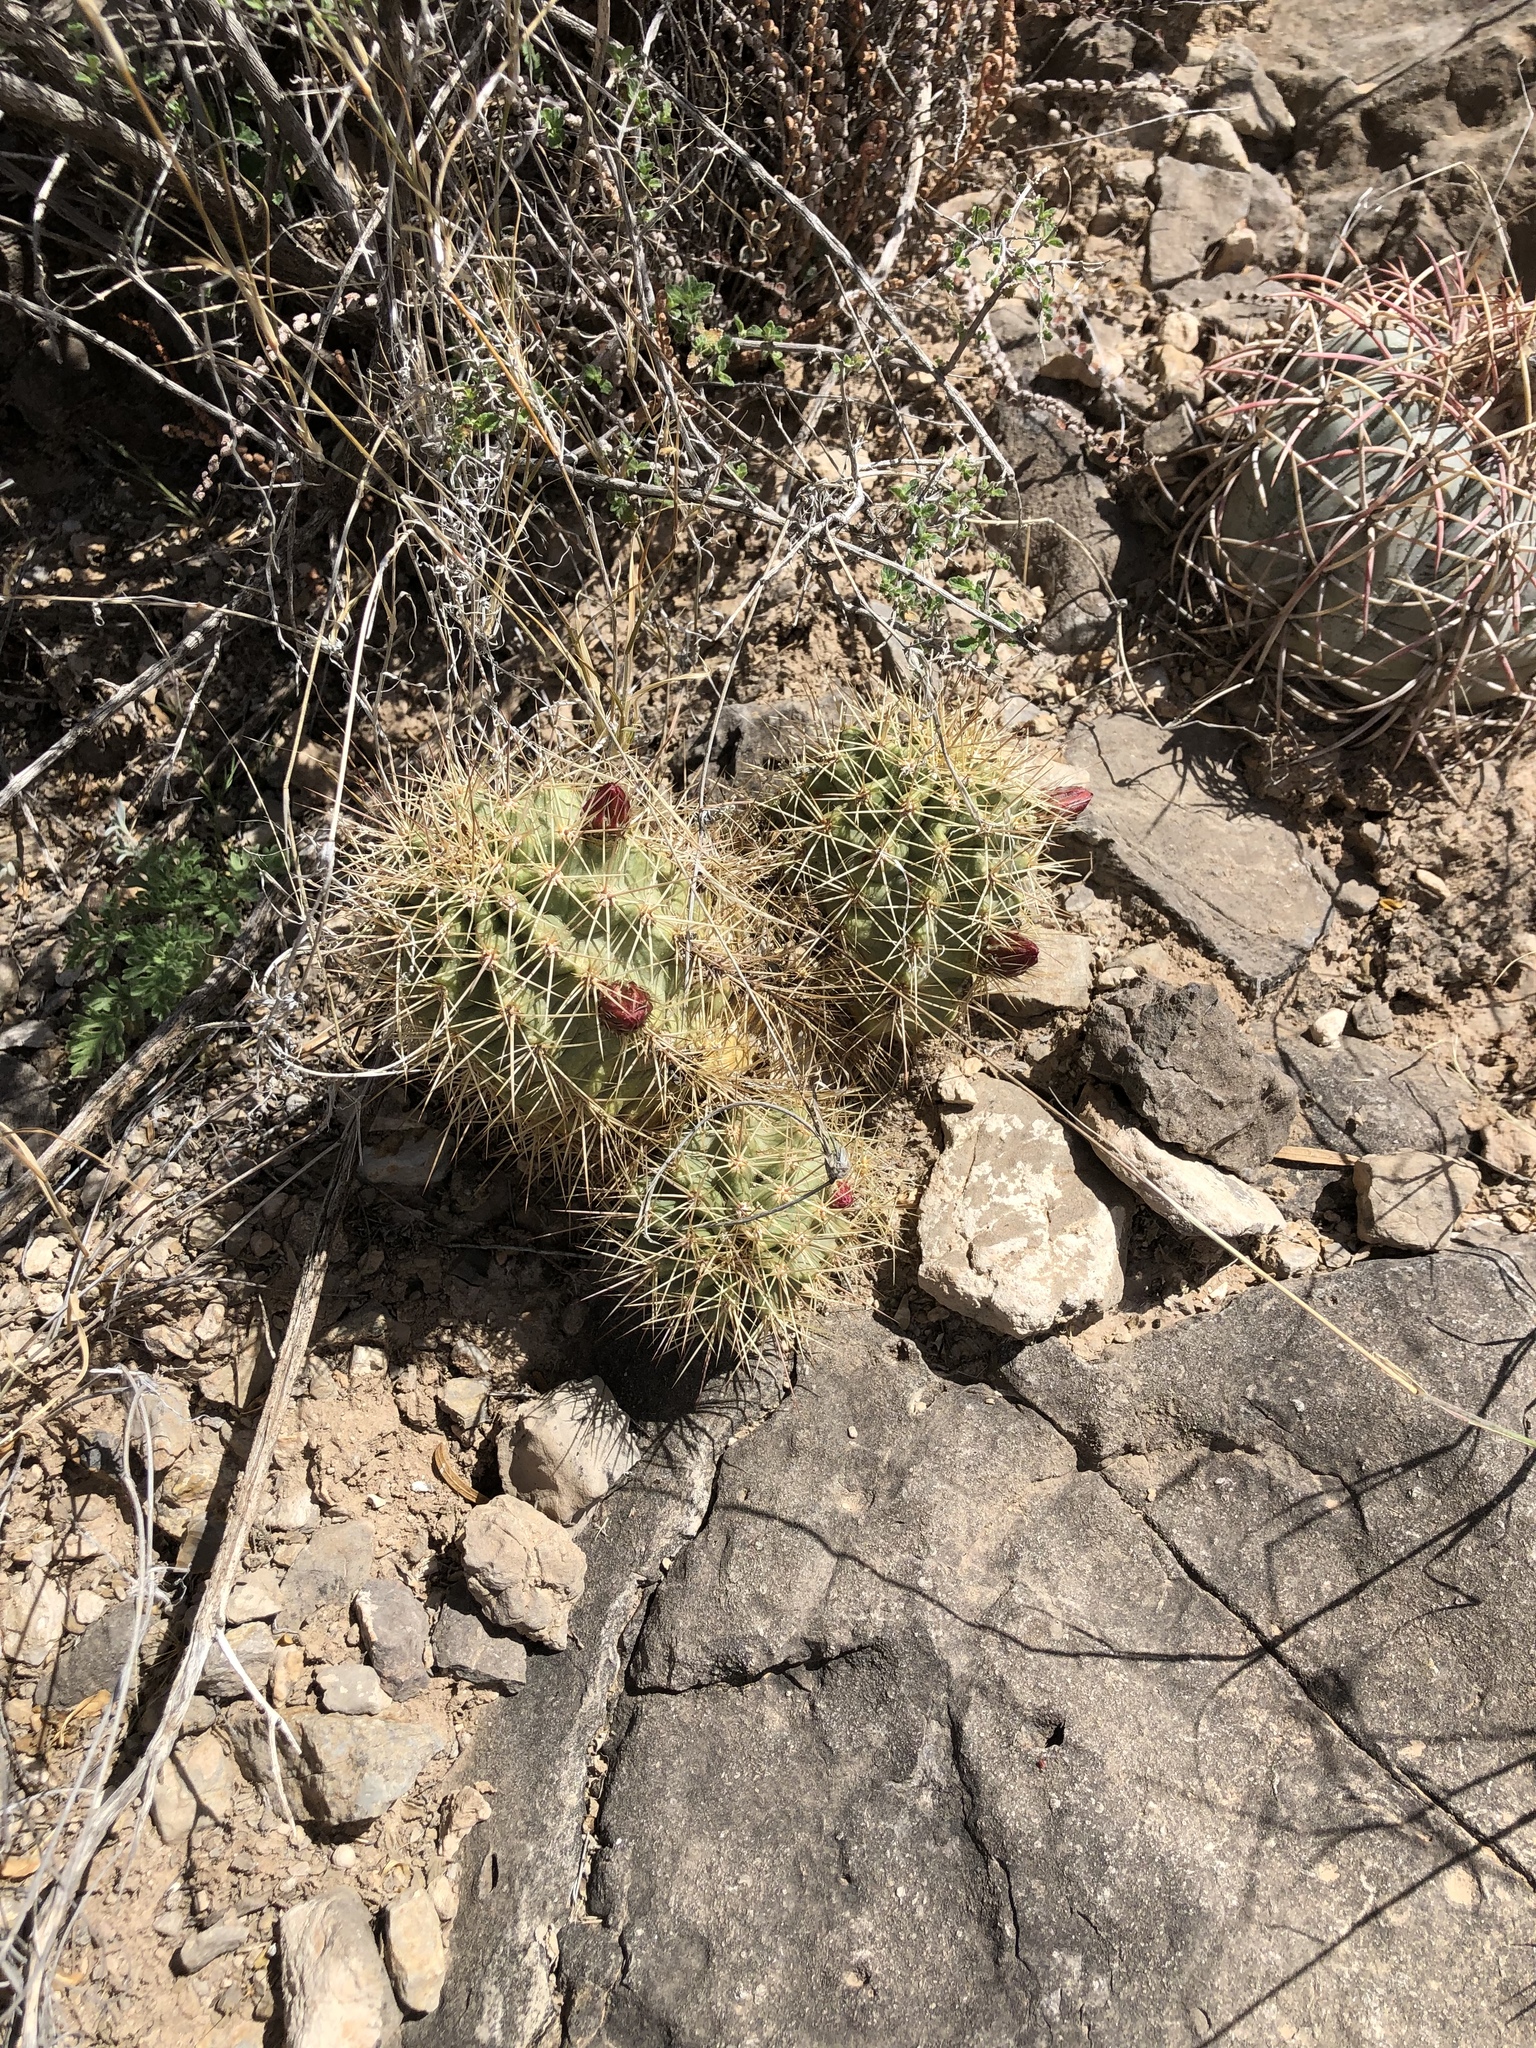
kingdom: Plantae
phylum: Tracheophyta
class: Magnoliopsida
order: Caryophyllales
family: Cactaceae
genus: Echinocereus
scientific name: Echinocereus coccineus
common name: Scarlet hedgehog cactus
